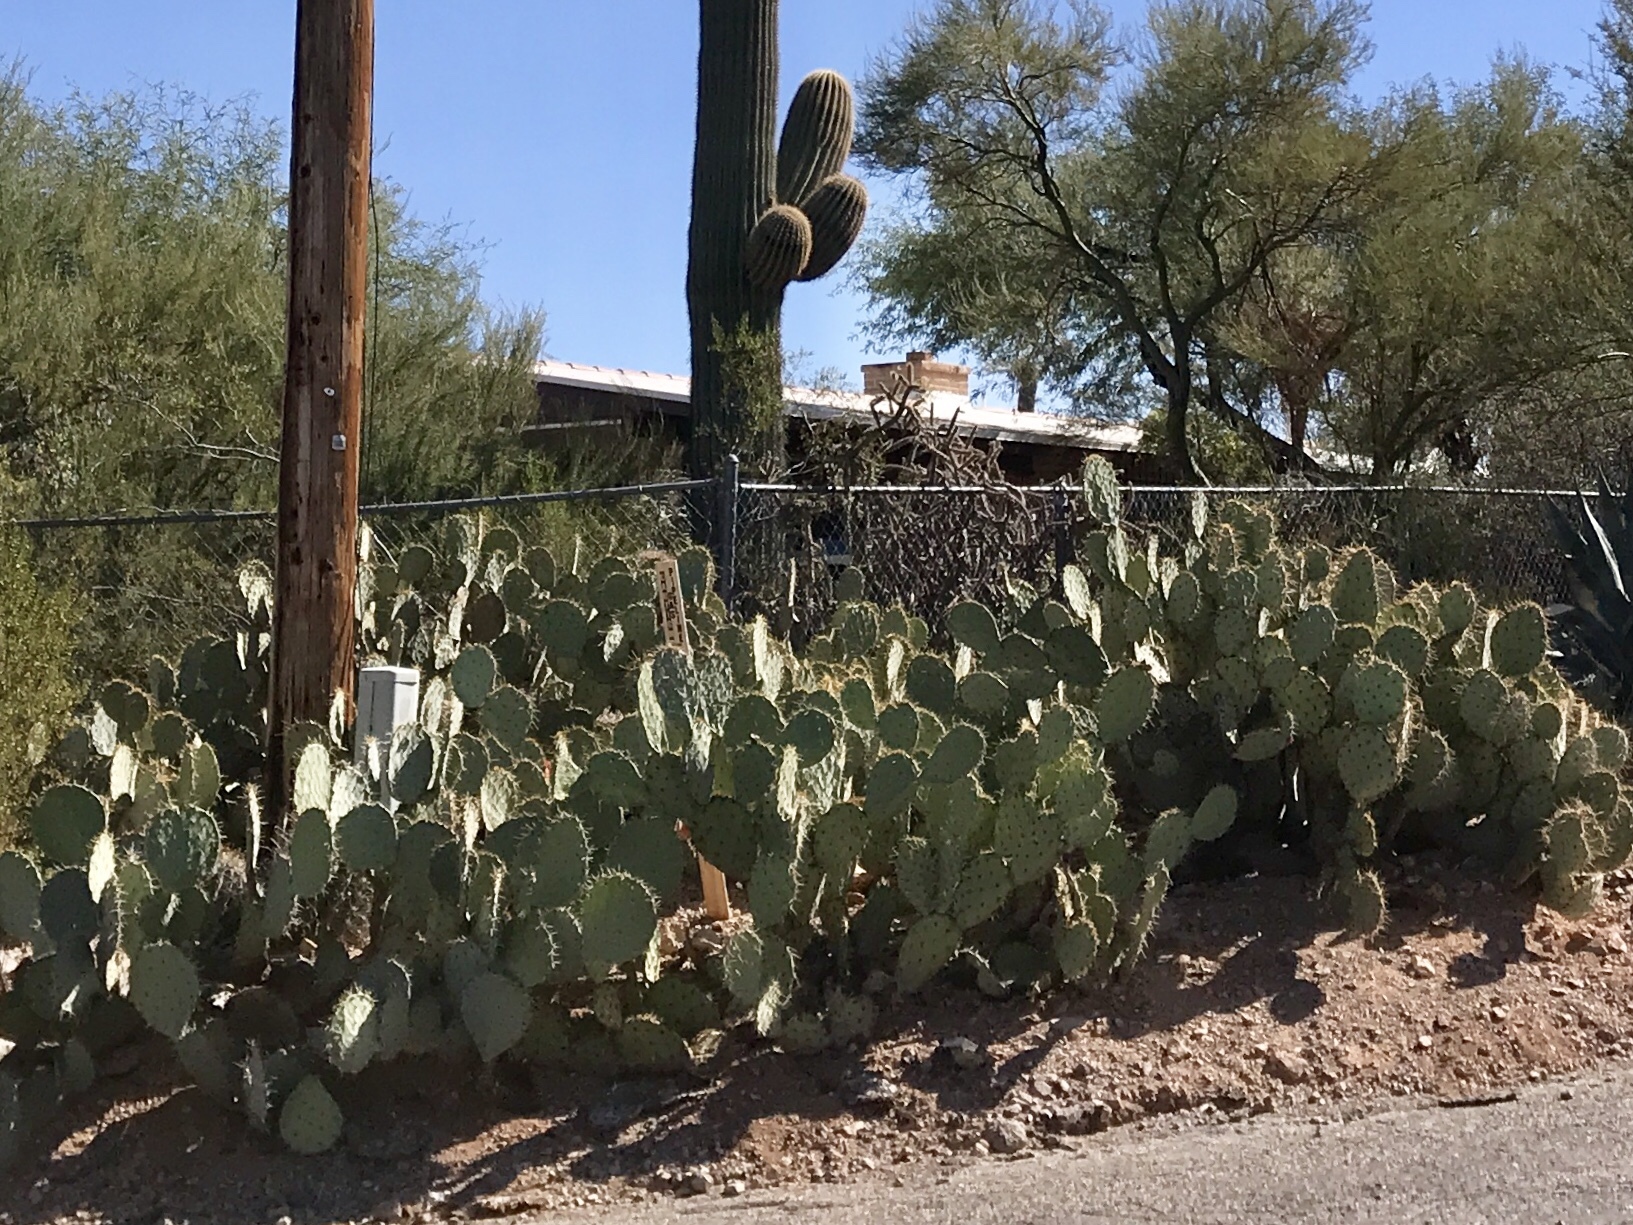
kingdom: Plantae
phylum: Tracheophyta
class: Magnoliopsida
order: Caryophyllales
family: Cactaceae
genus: Opuntia
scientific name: Opuntia engelmannii
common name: Cactus-apple
